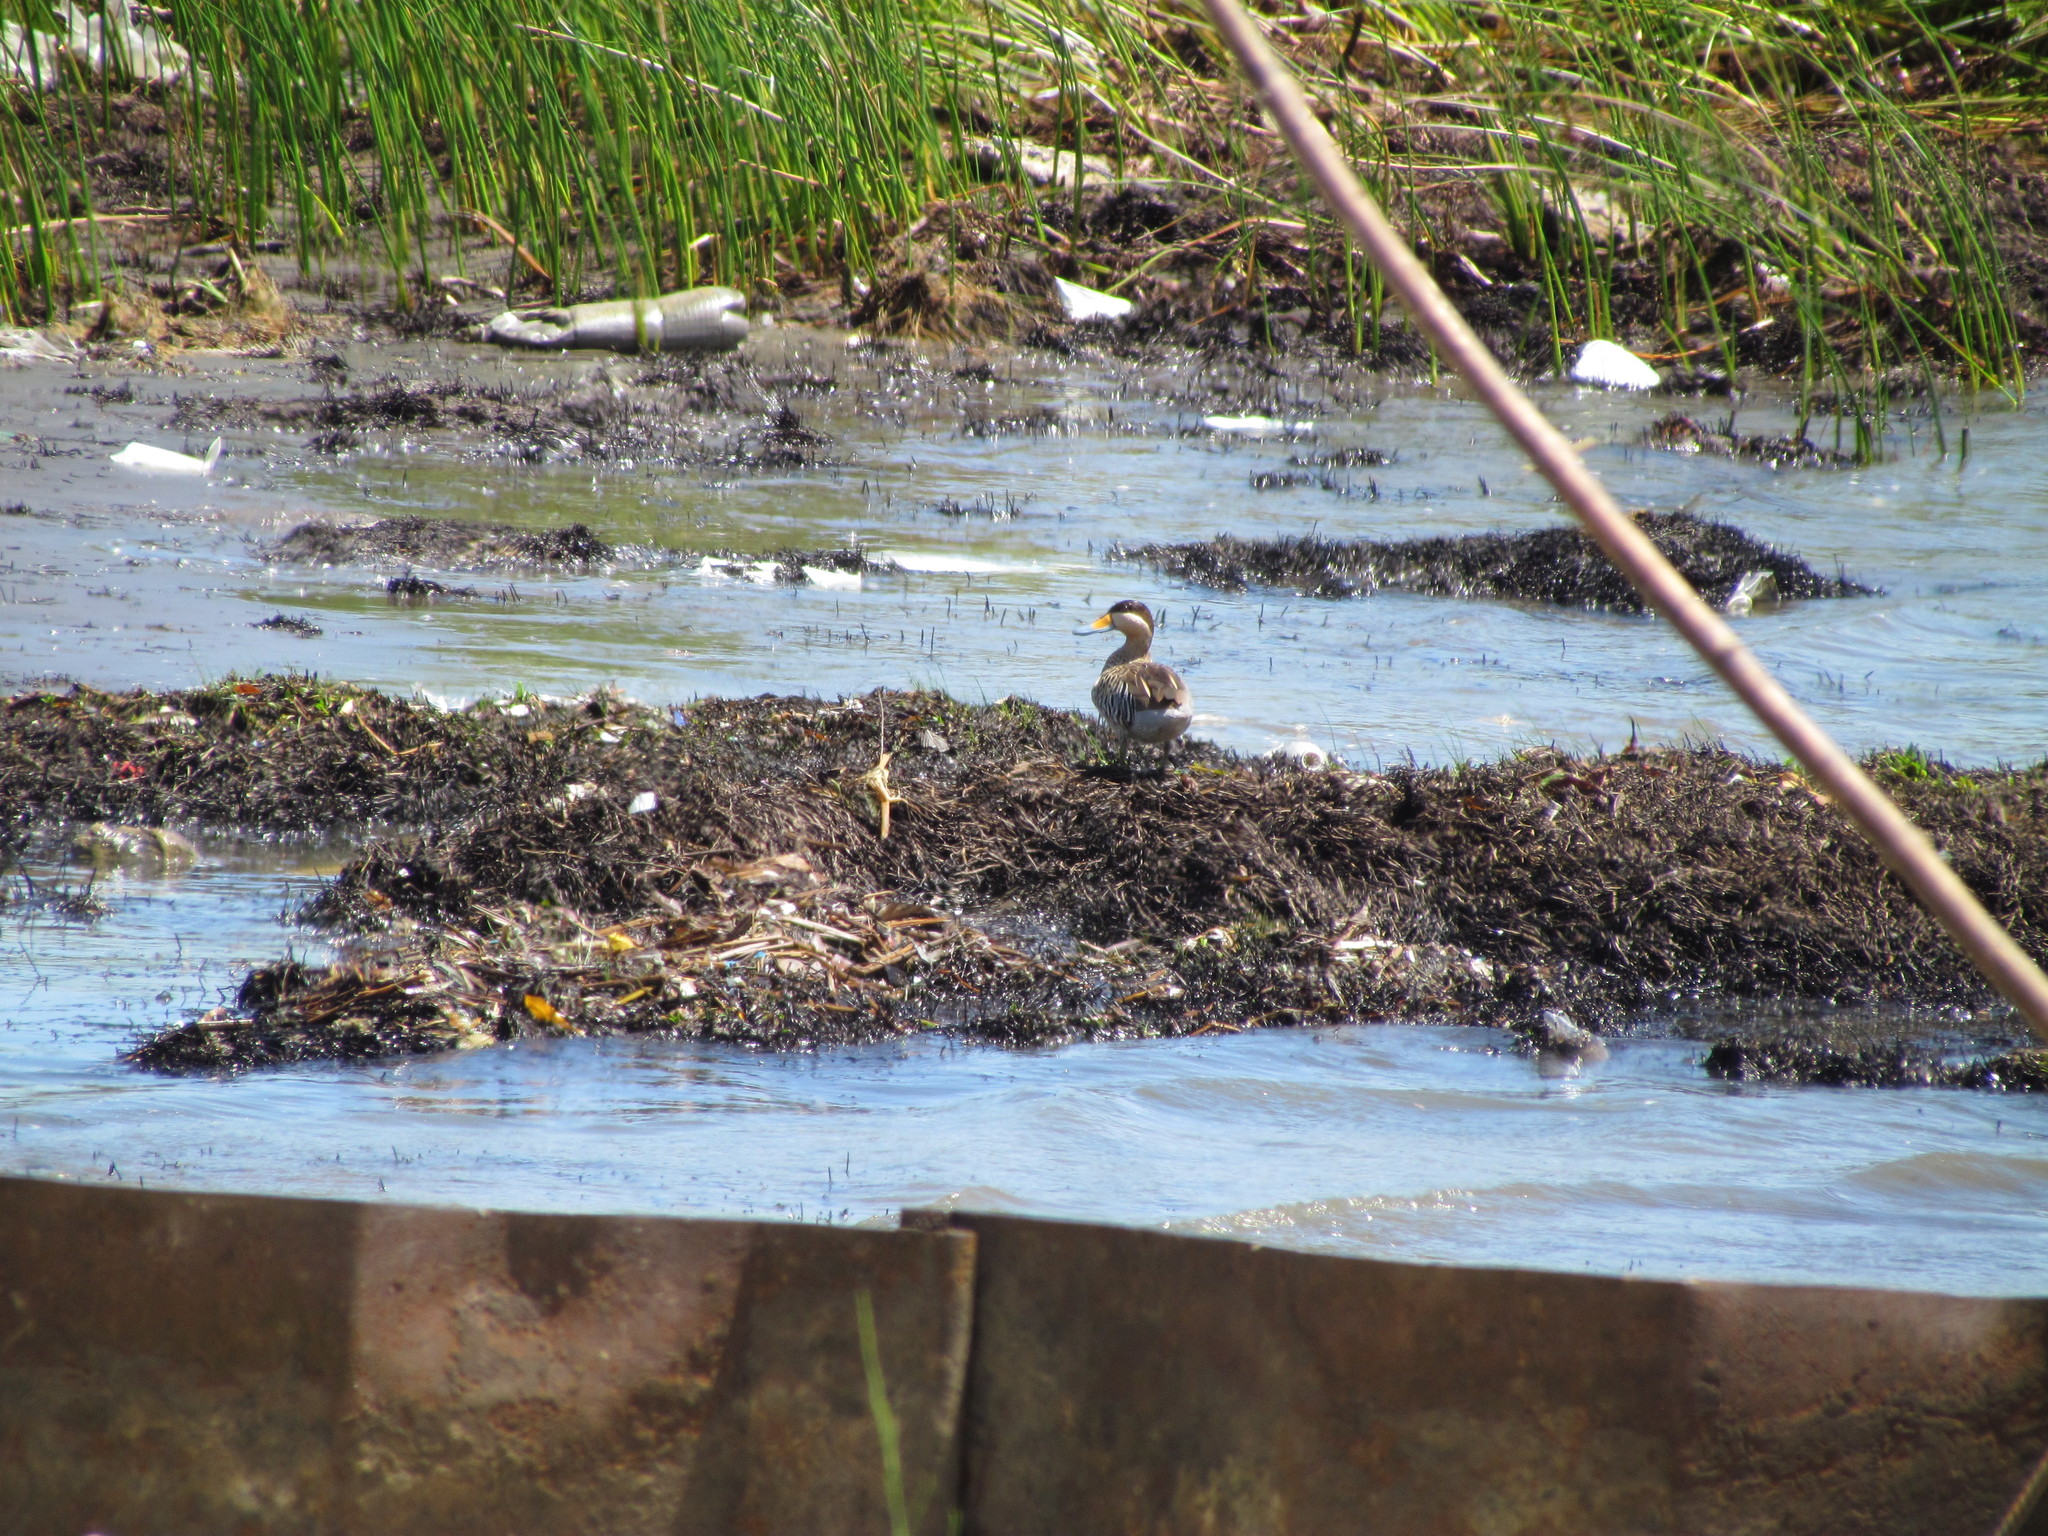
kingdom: Animalia
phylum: Chordata
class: Aves
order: Anseriformes
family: Anatidae
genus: Spatula
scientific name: Spatula versicolor
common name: Silver teal
